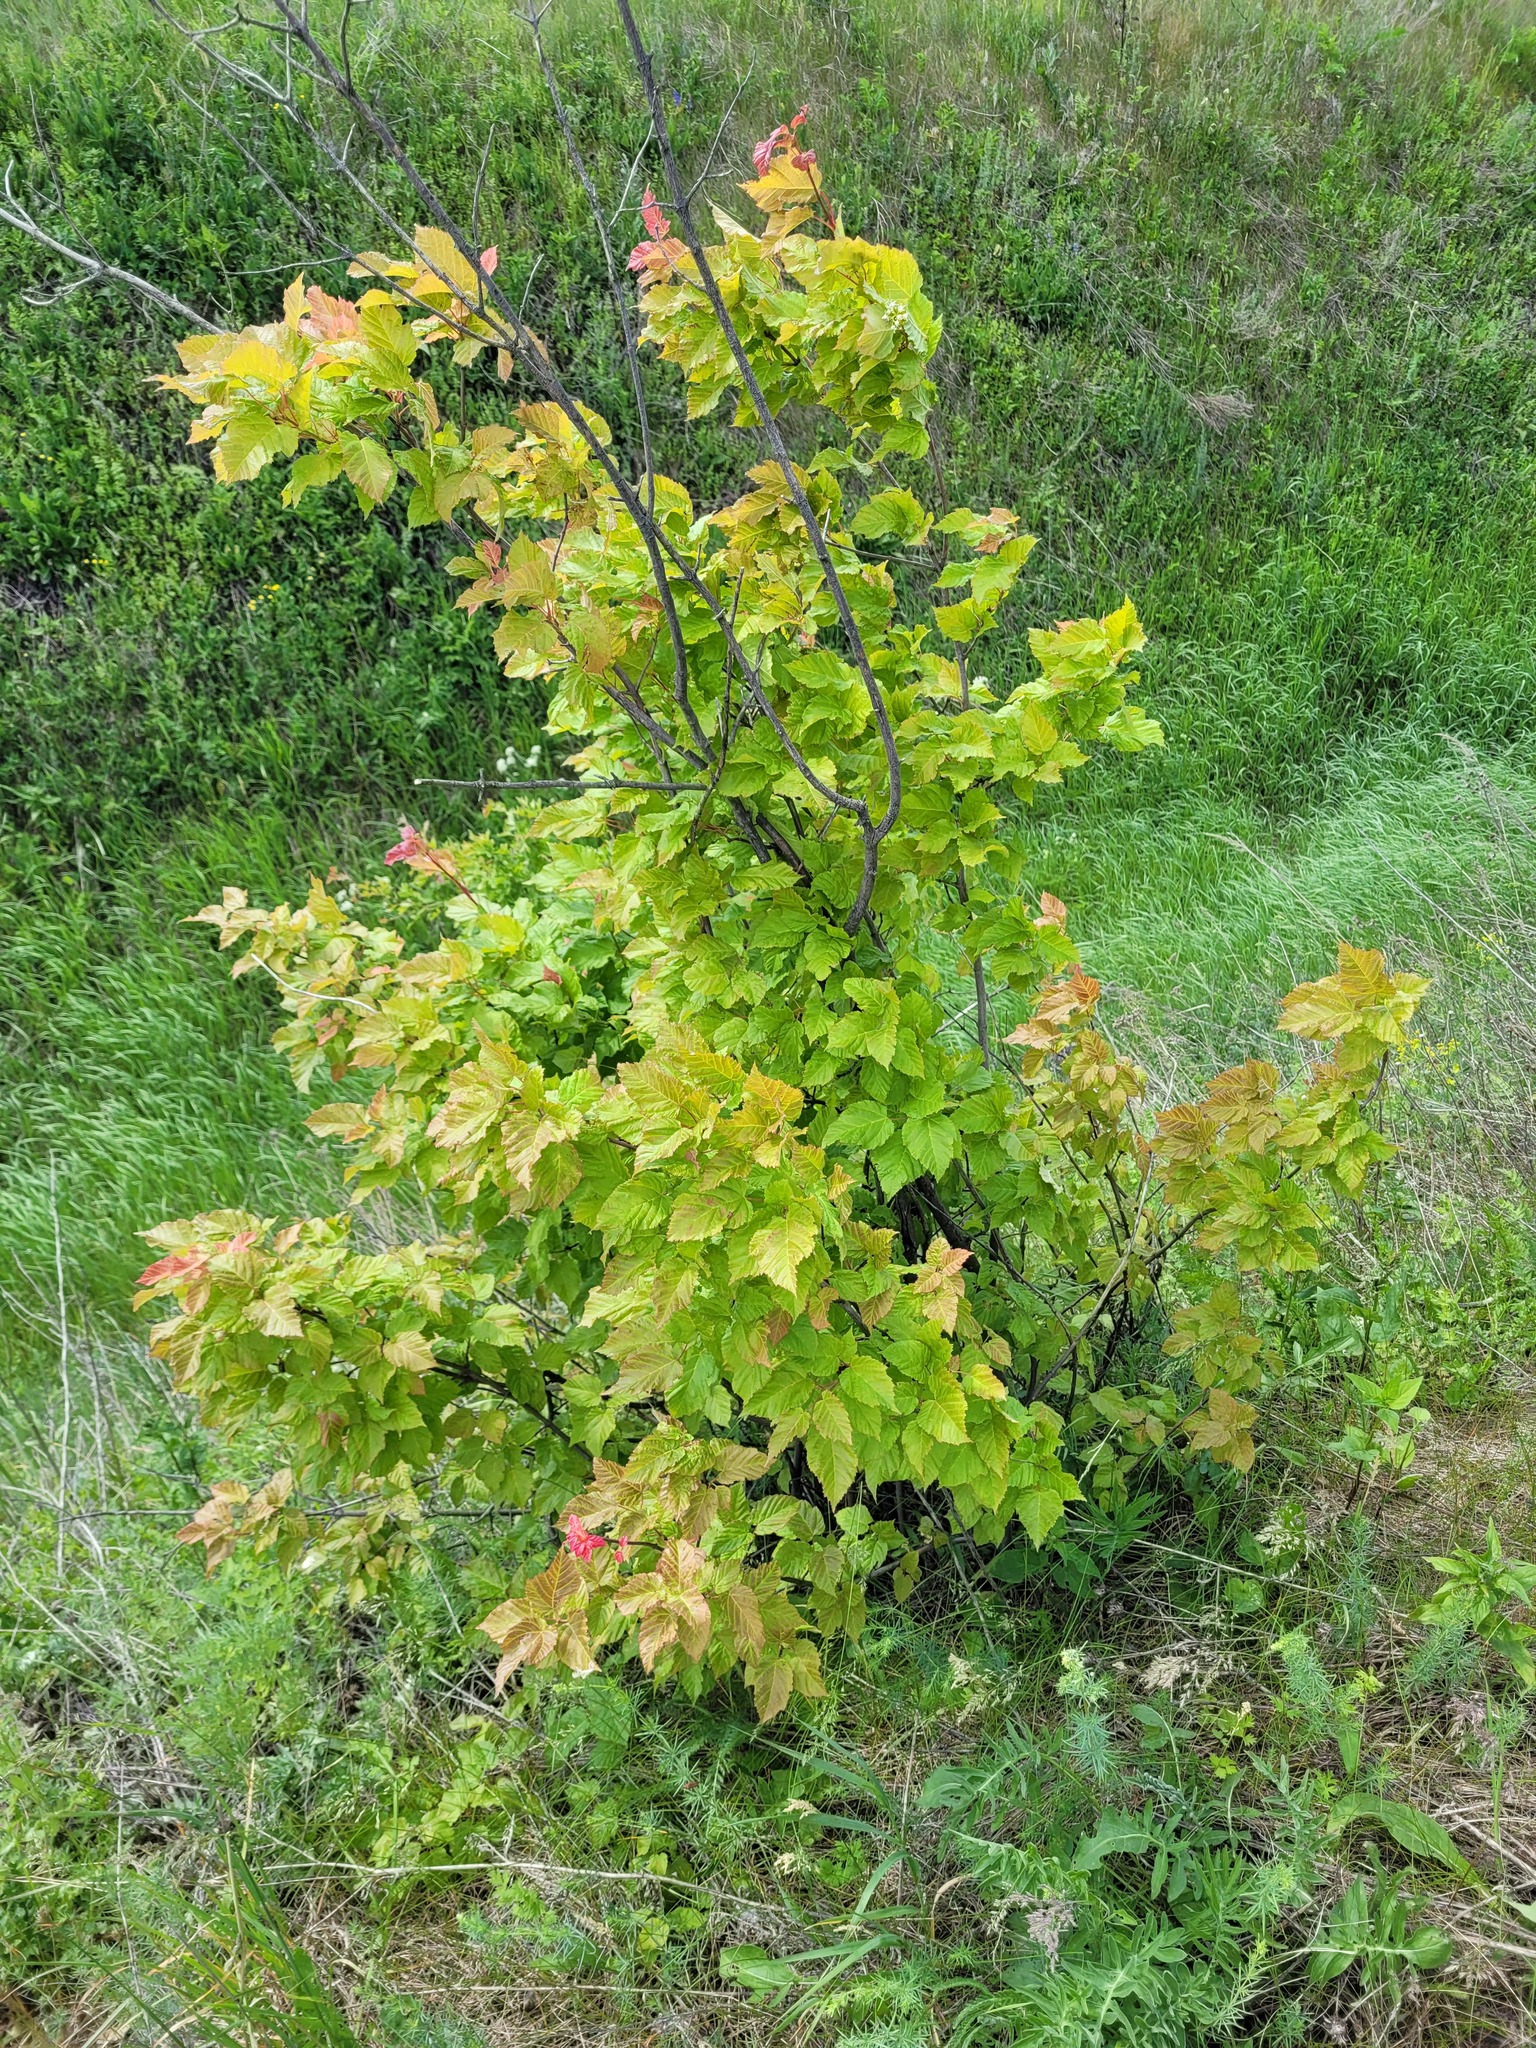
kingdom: Plantae
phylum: Tracheophyta
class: Magnoliopsida
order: Sapindales
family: Sapindaceae
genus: Acer
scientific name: Acer tataricum
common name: Tartar maple
